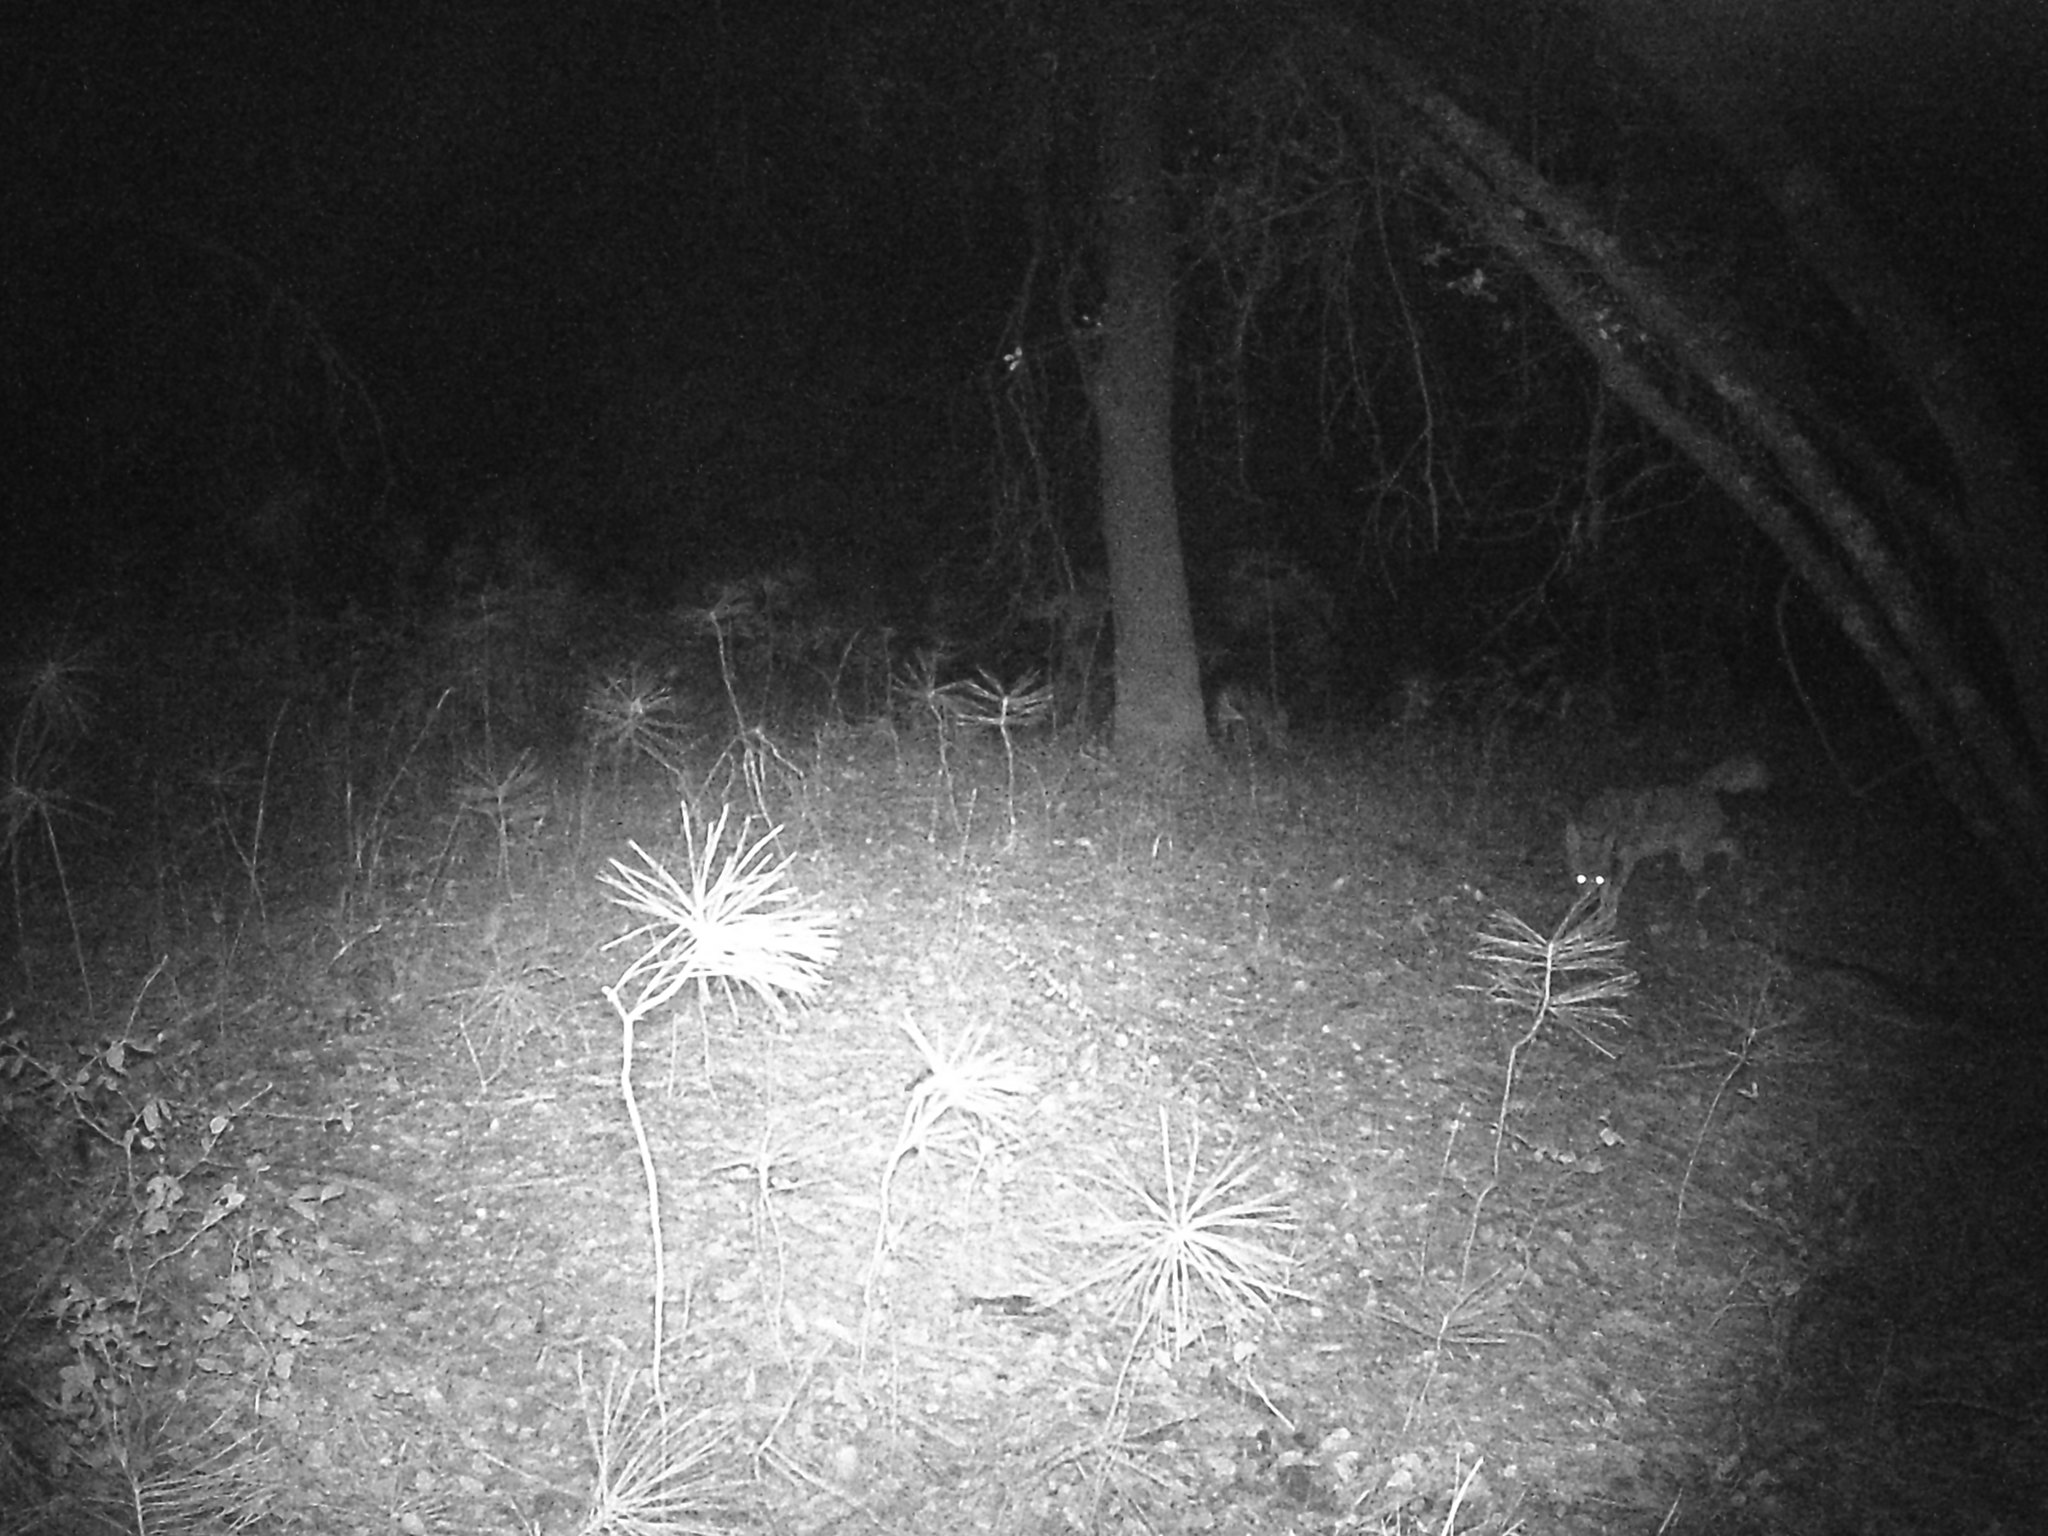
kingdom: Animalia
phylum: Chordata
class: Mammalia
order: Carnivora
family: Canidae
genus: Canis
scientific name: Canis latrans
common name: Coyote
